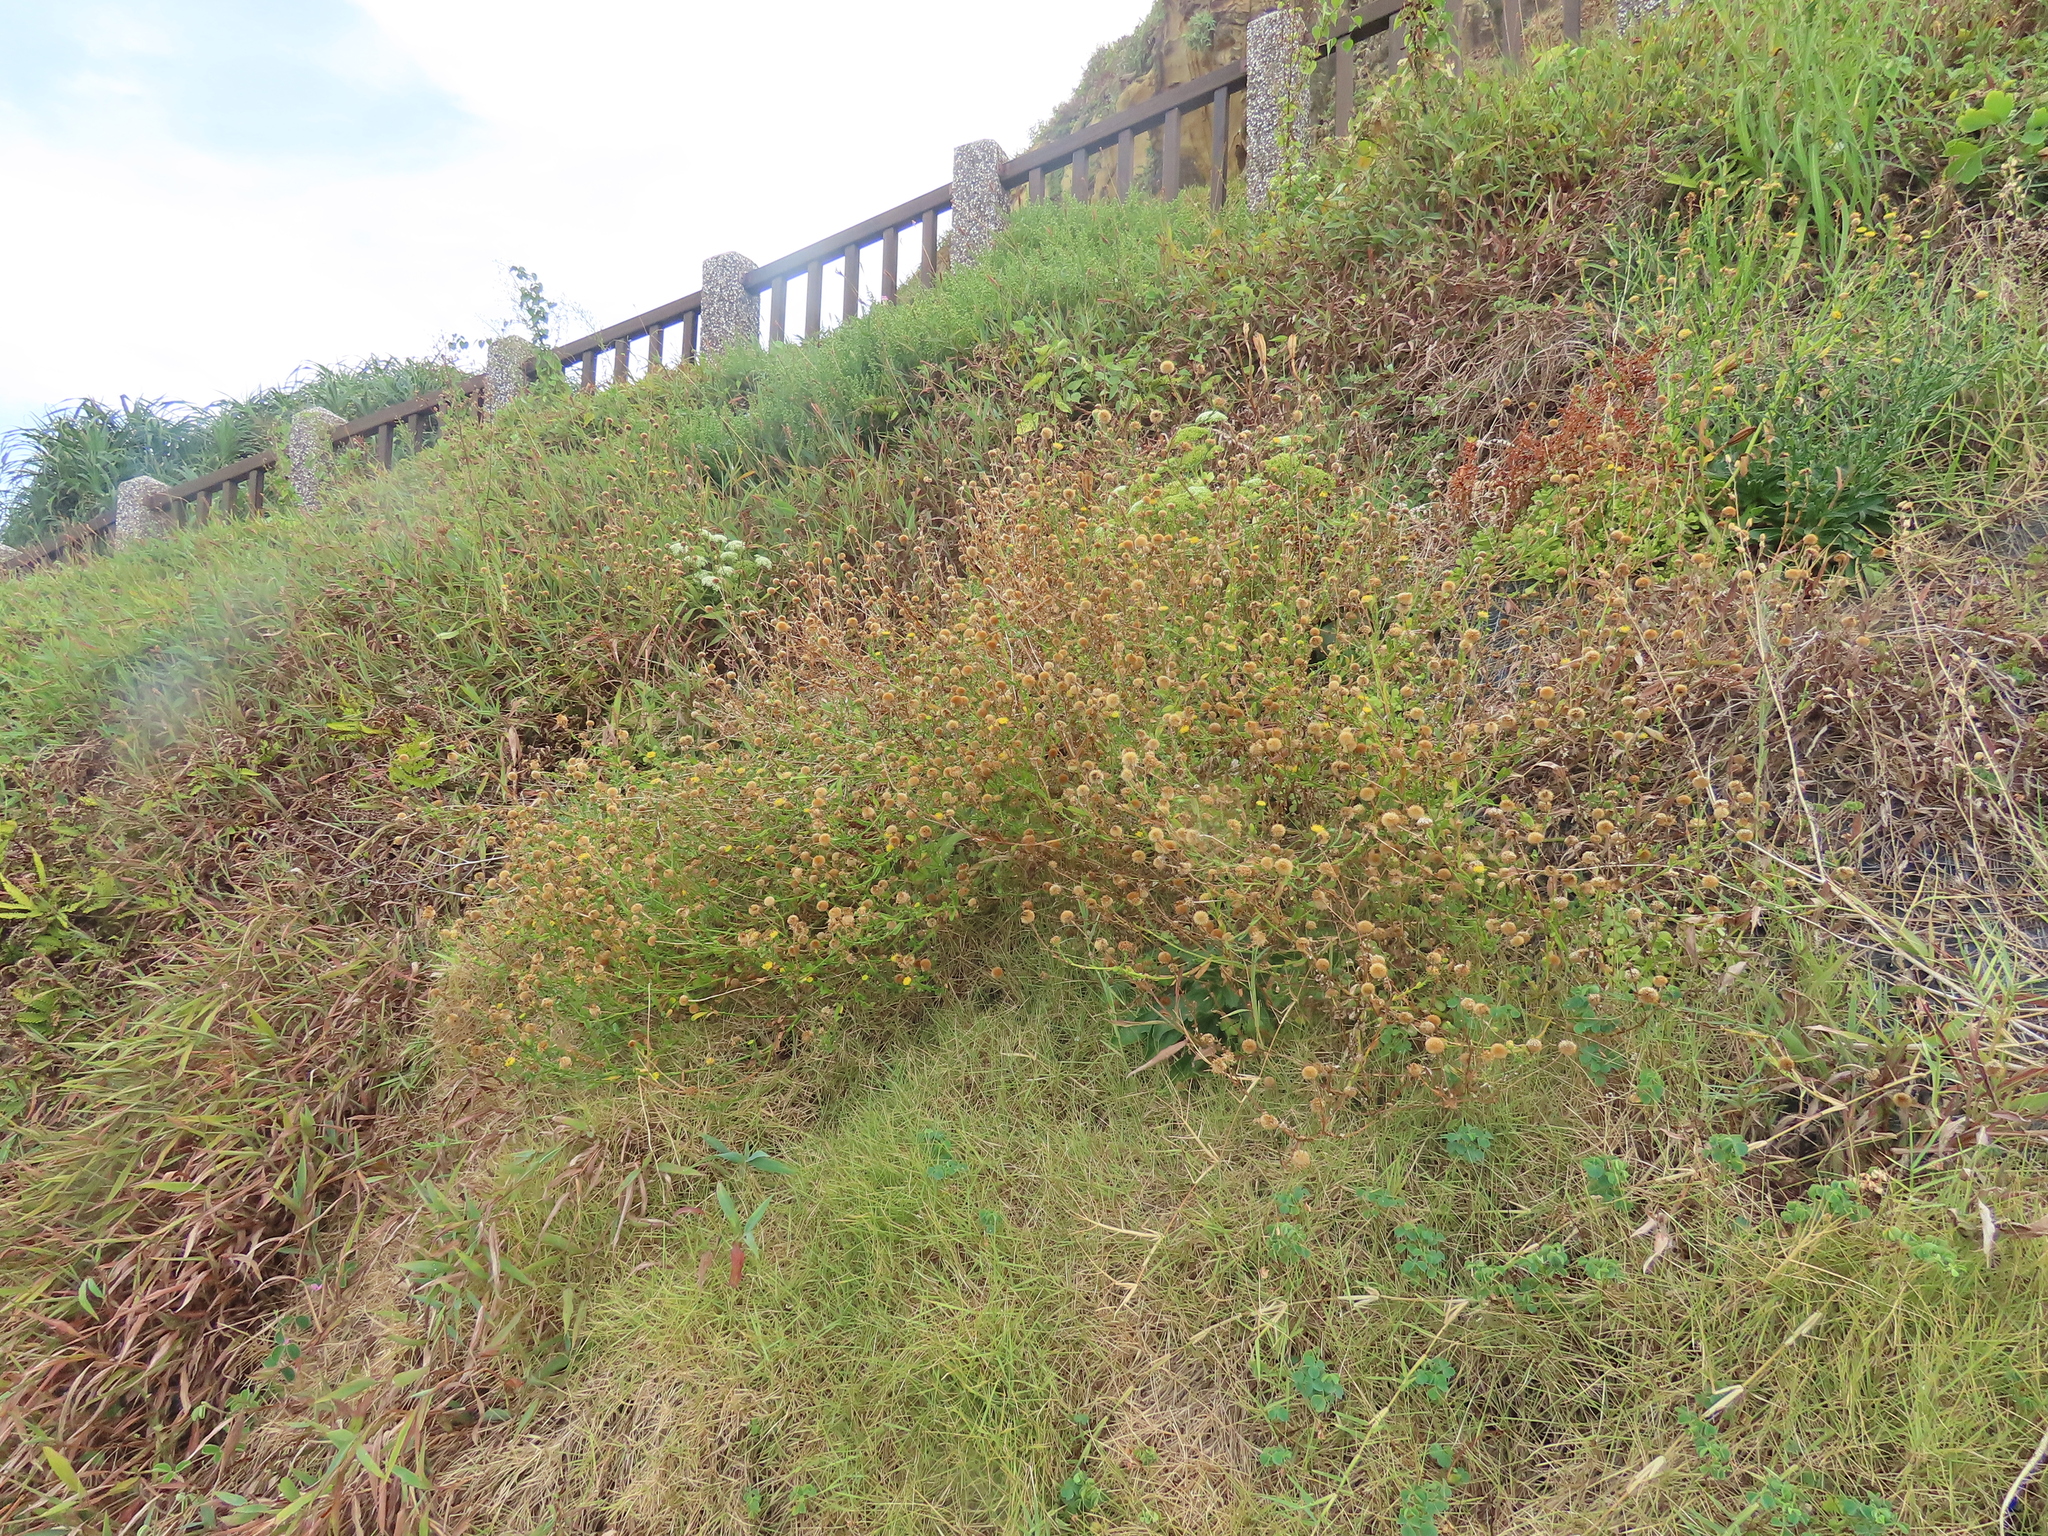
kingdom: Plantae
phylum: Tracheophyta
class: Magnoliopsida
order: Asterales
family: Asteraceae
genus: Heteropappus
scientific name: Heteropappus oldhamii
